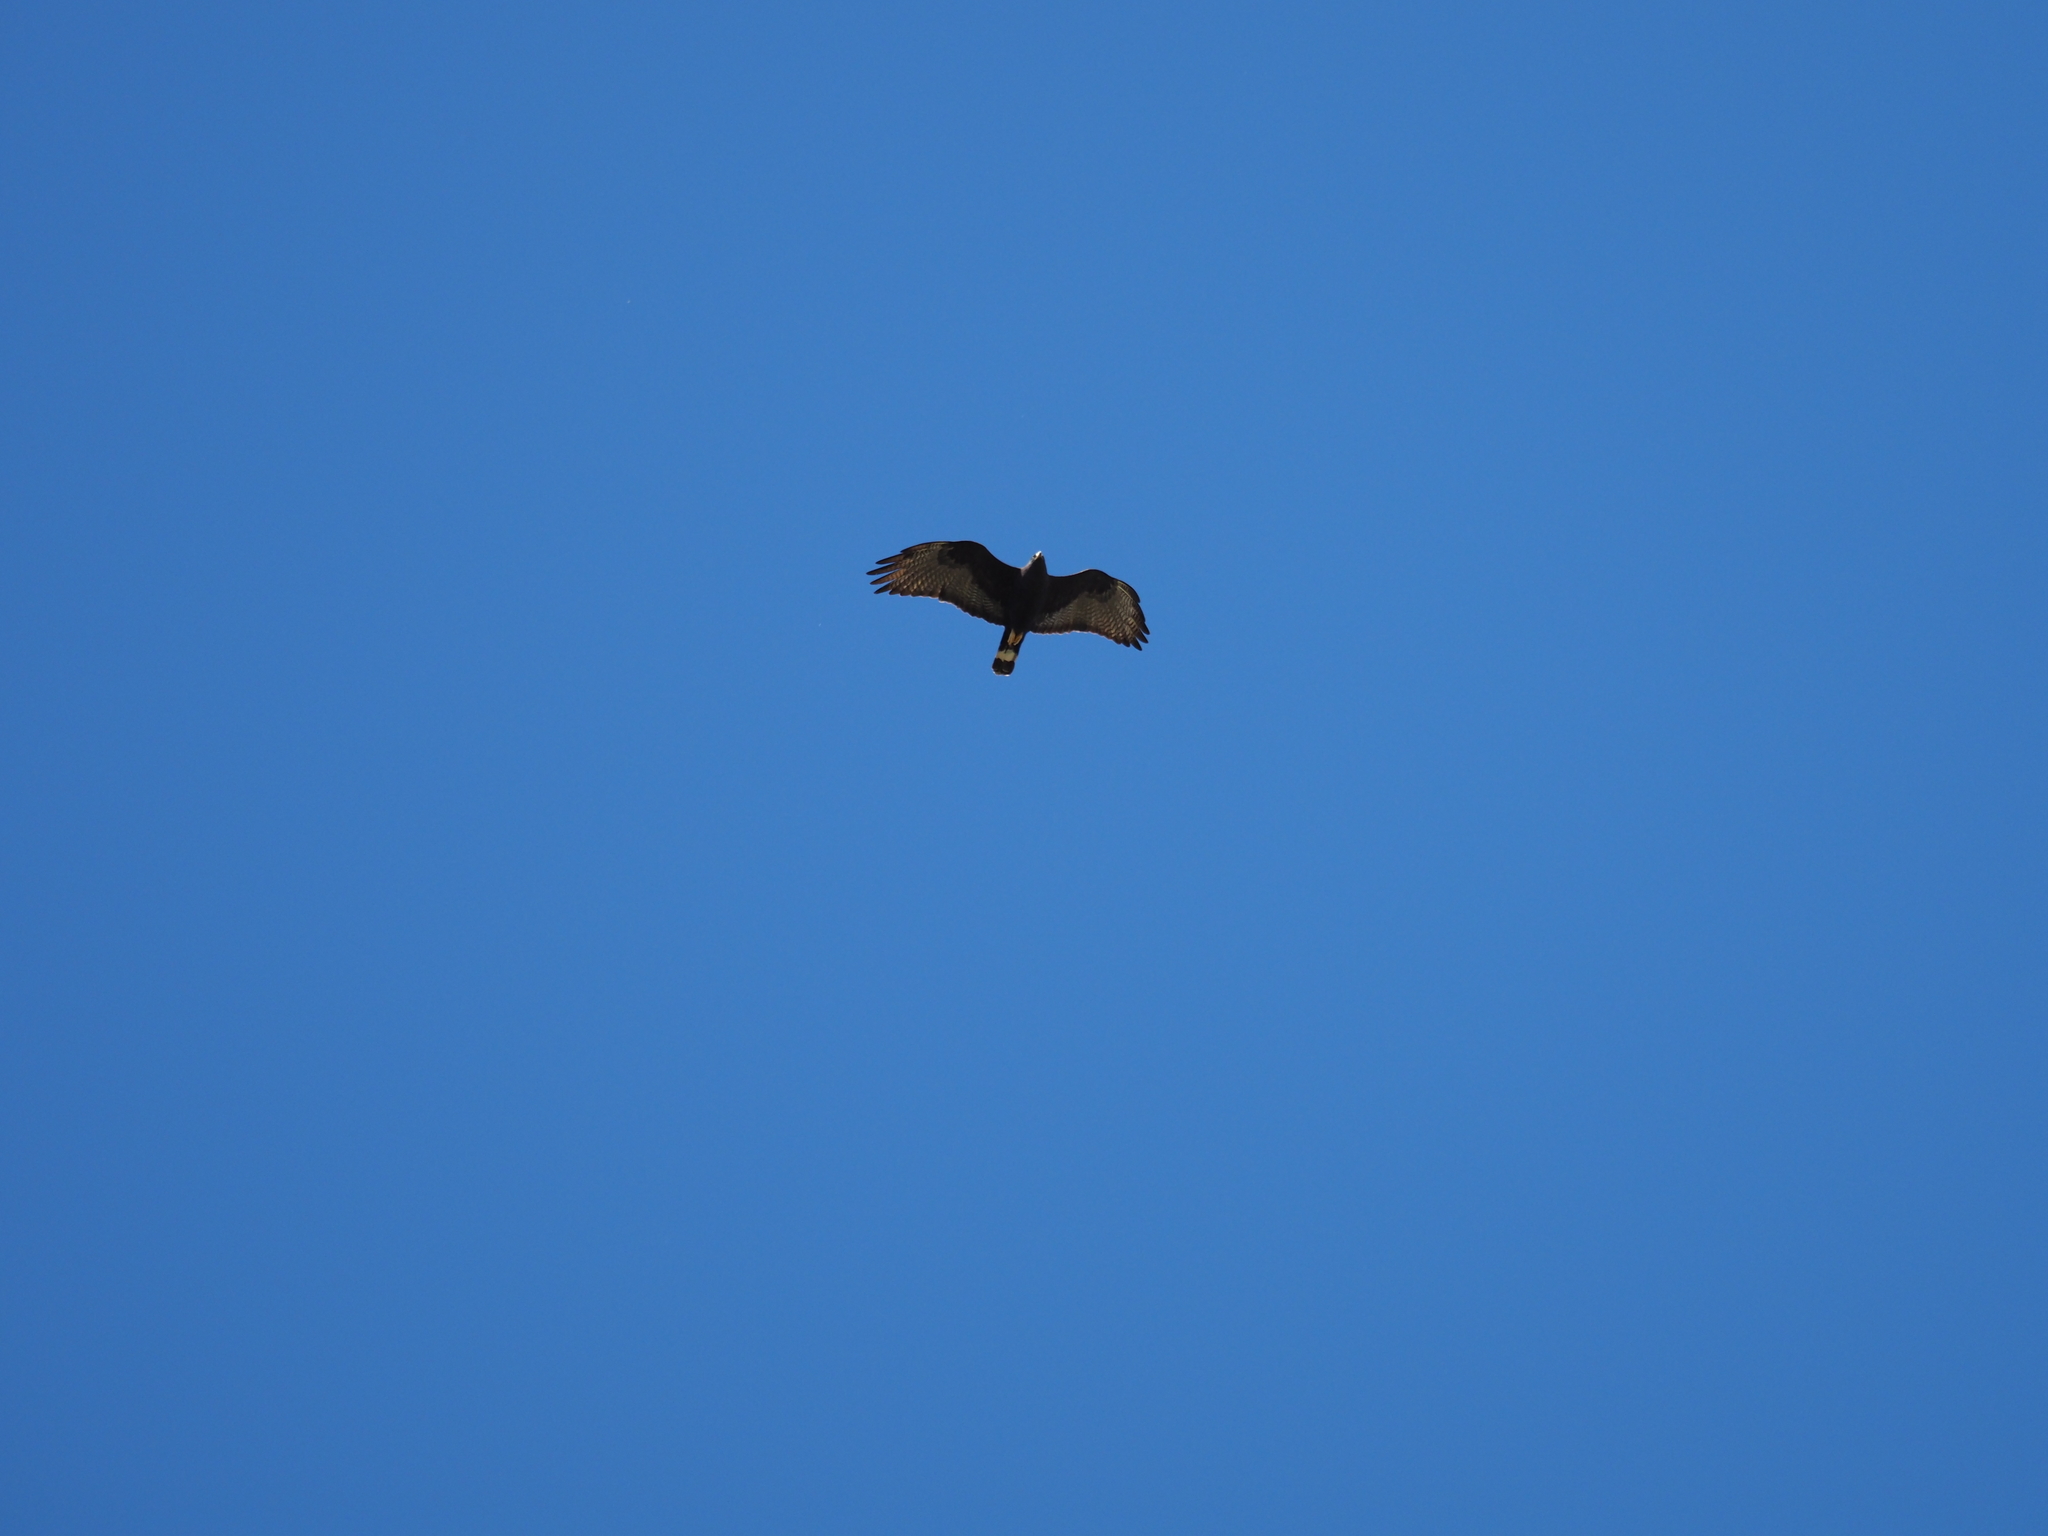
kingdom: Animalia
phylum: Chordata
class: Aves
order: Accipitriformes
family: Accipitridae
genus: Buteo
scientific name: Buteo albonotatus
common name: Zone-tailed hawk
